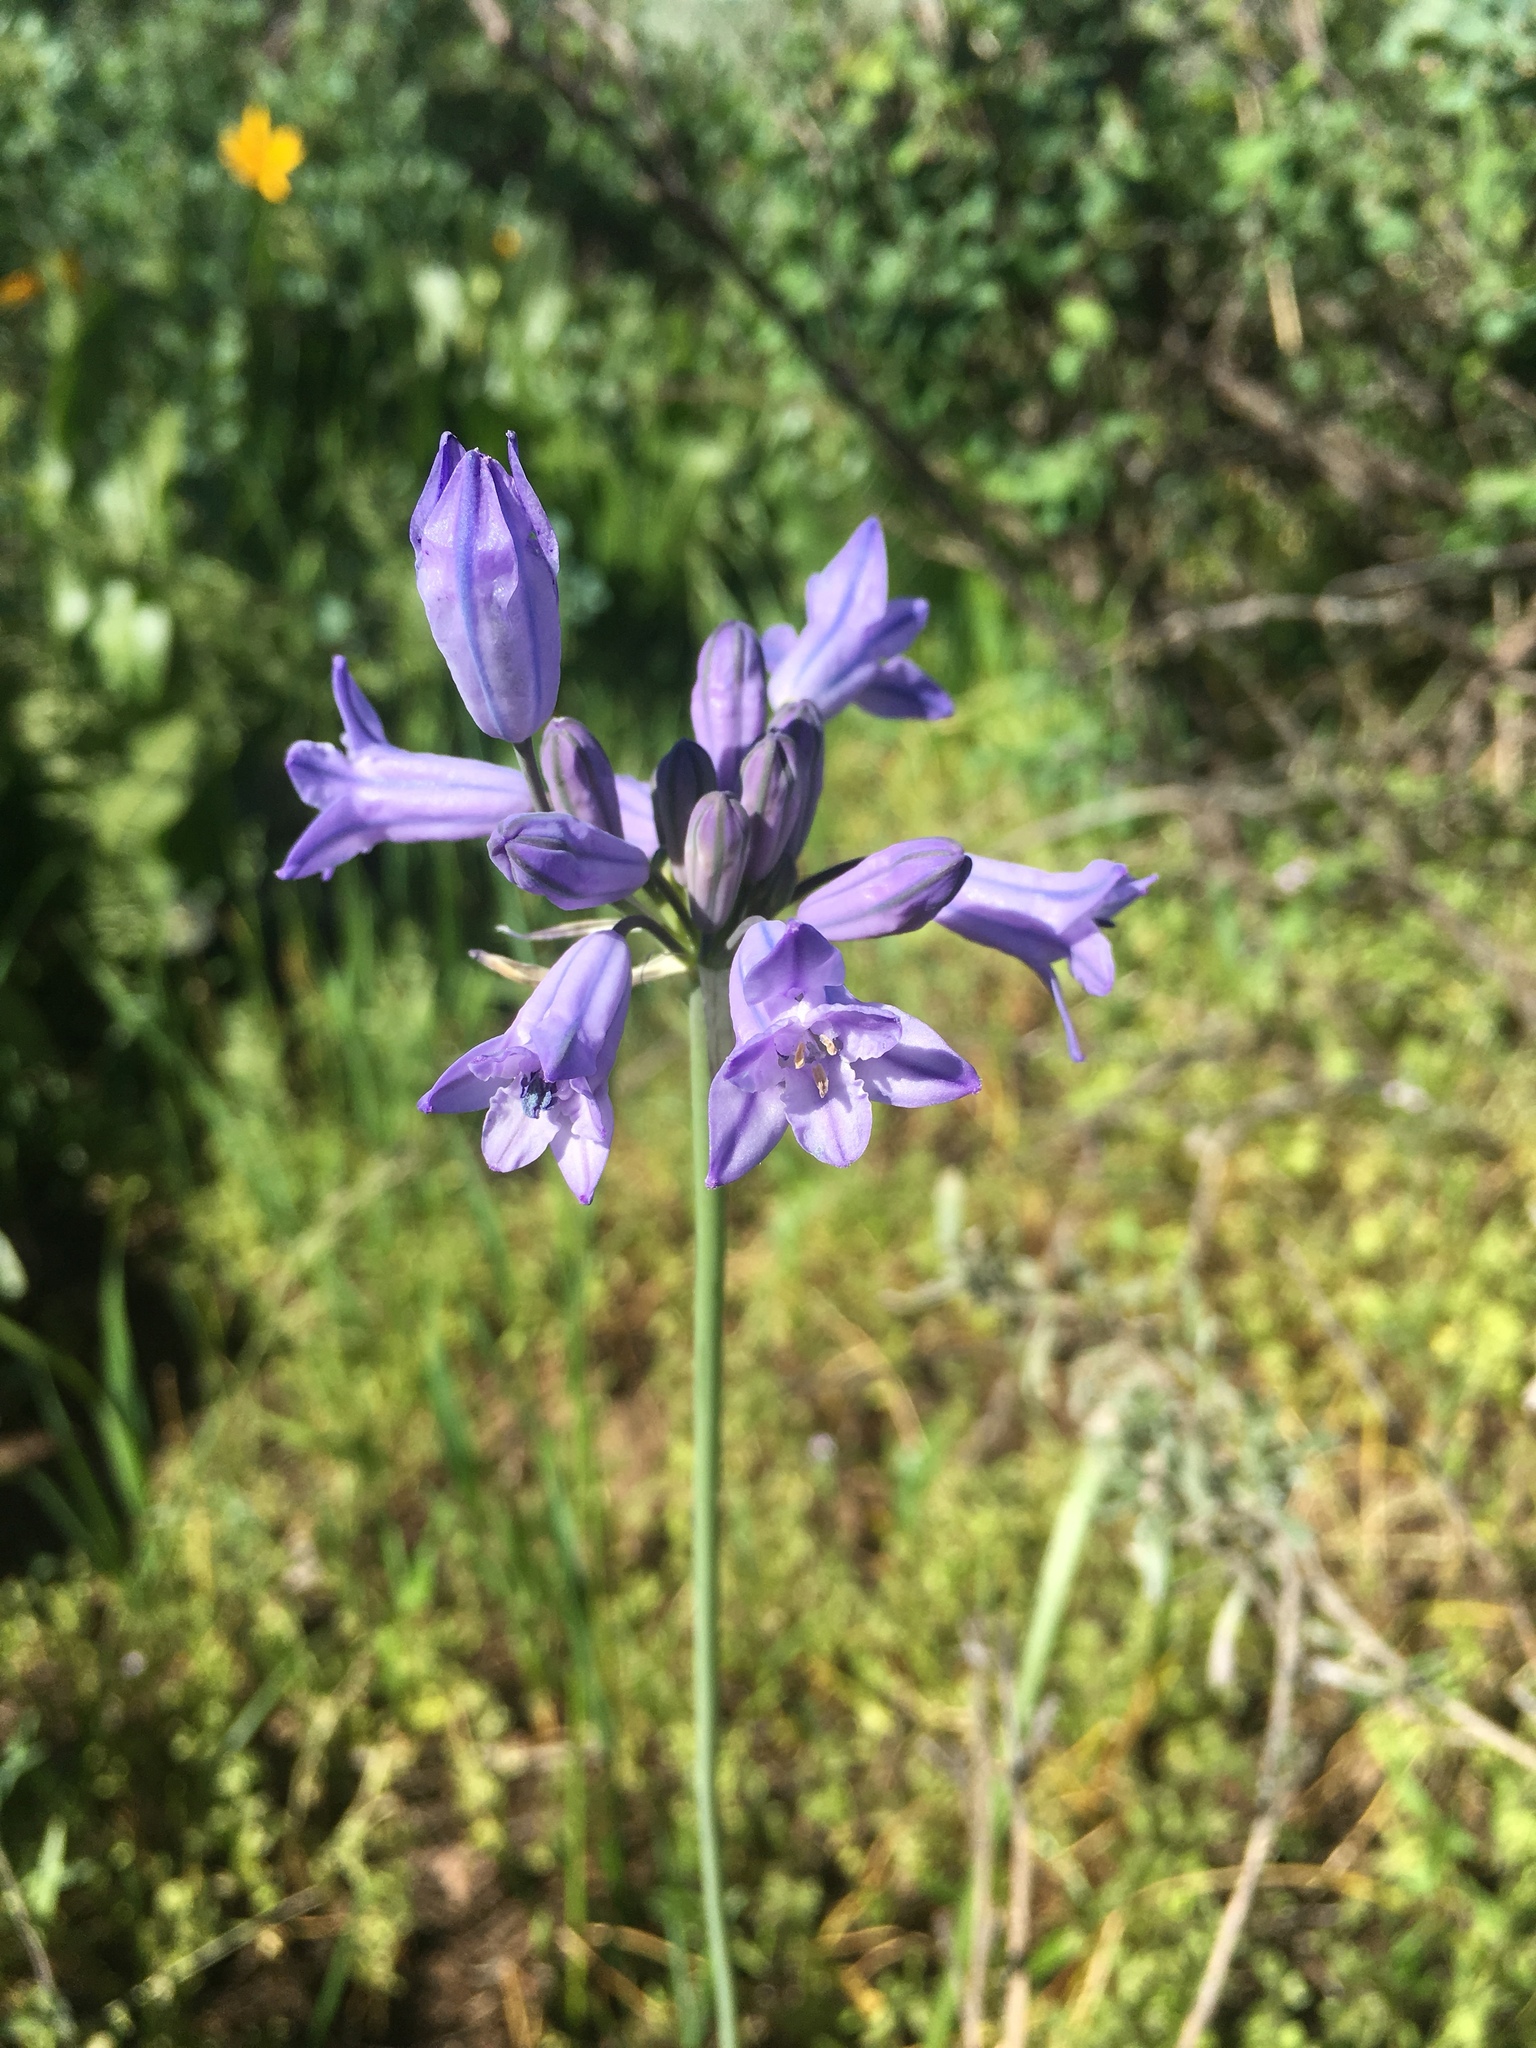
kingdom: Plantae
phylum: Tracheophyta
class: Liliopsida
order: Asparagales
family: Asparagaceae
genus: Triteleia
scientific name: Triteleia grandiflora
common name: Wild hyacinth
